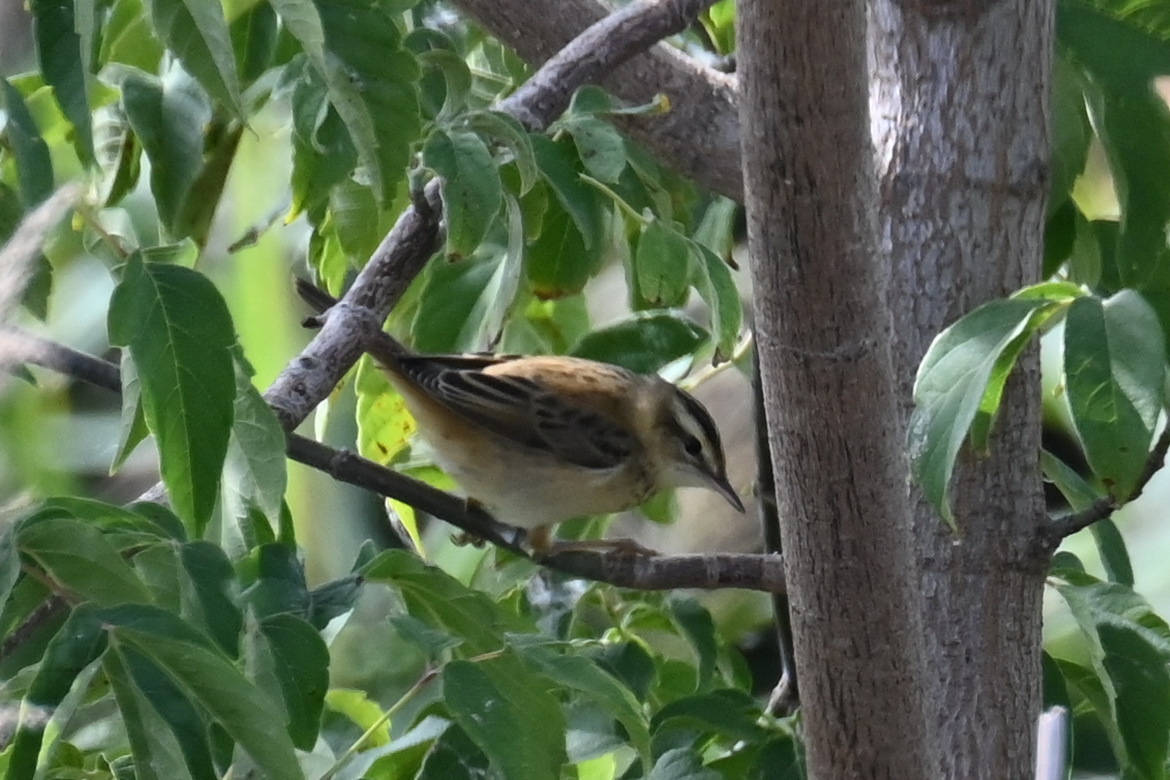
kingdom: Animalia
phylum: Chordata
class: Aves
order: Passeriformes
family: Acrocephalidae
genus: Acrocephalus
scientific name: Acrocephalus schoenobaenus
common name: Sedge warbler
